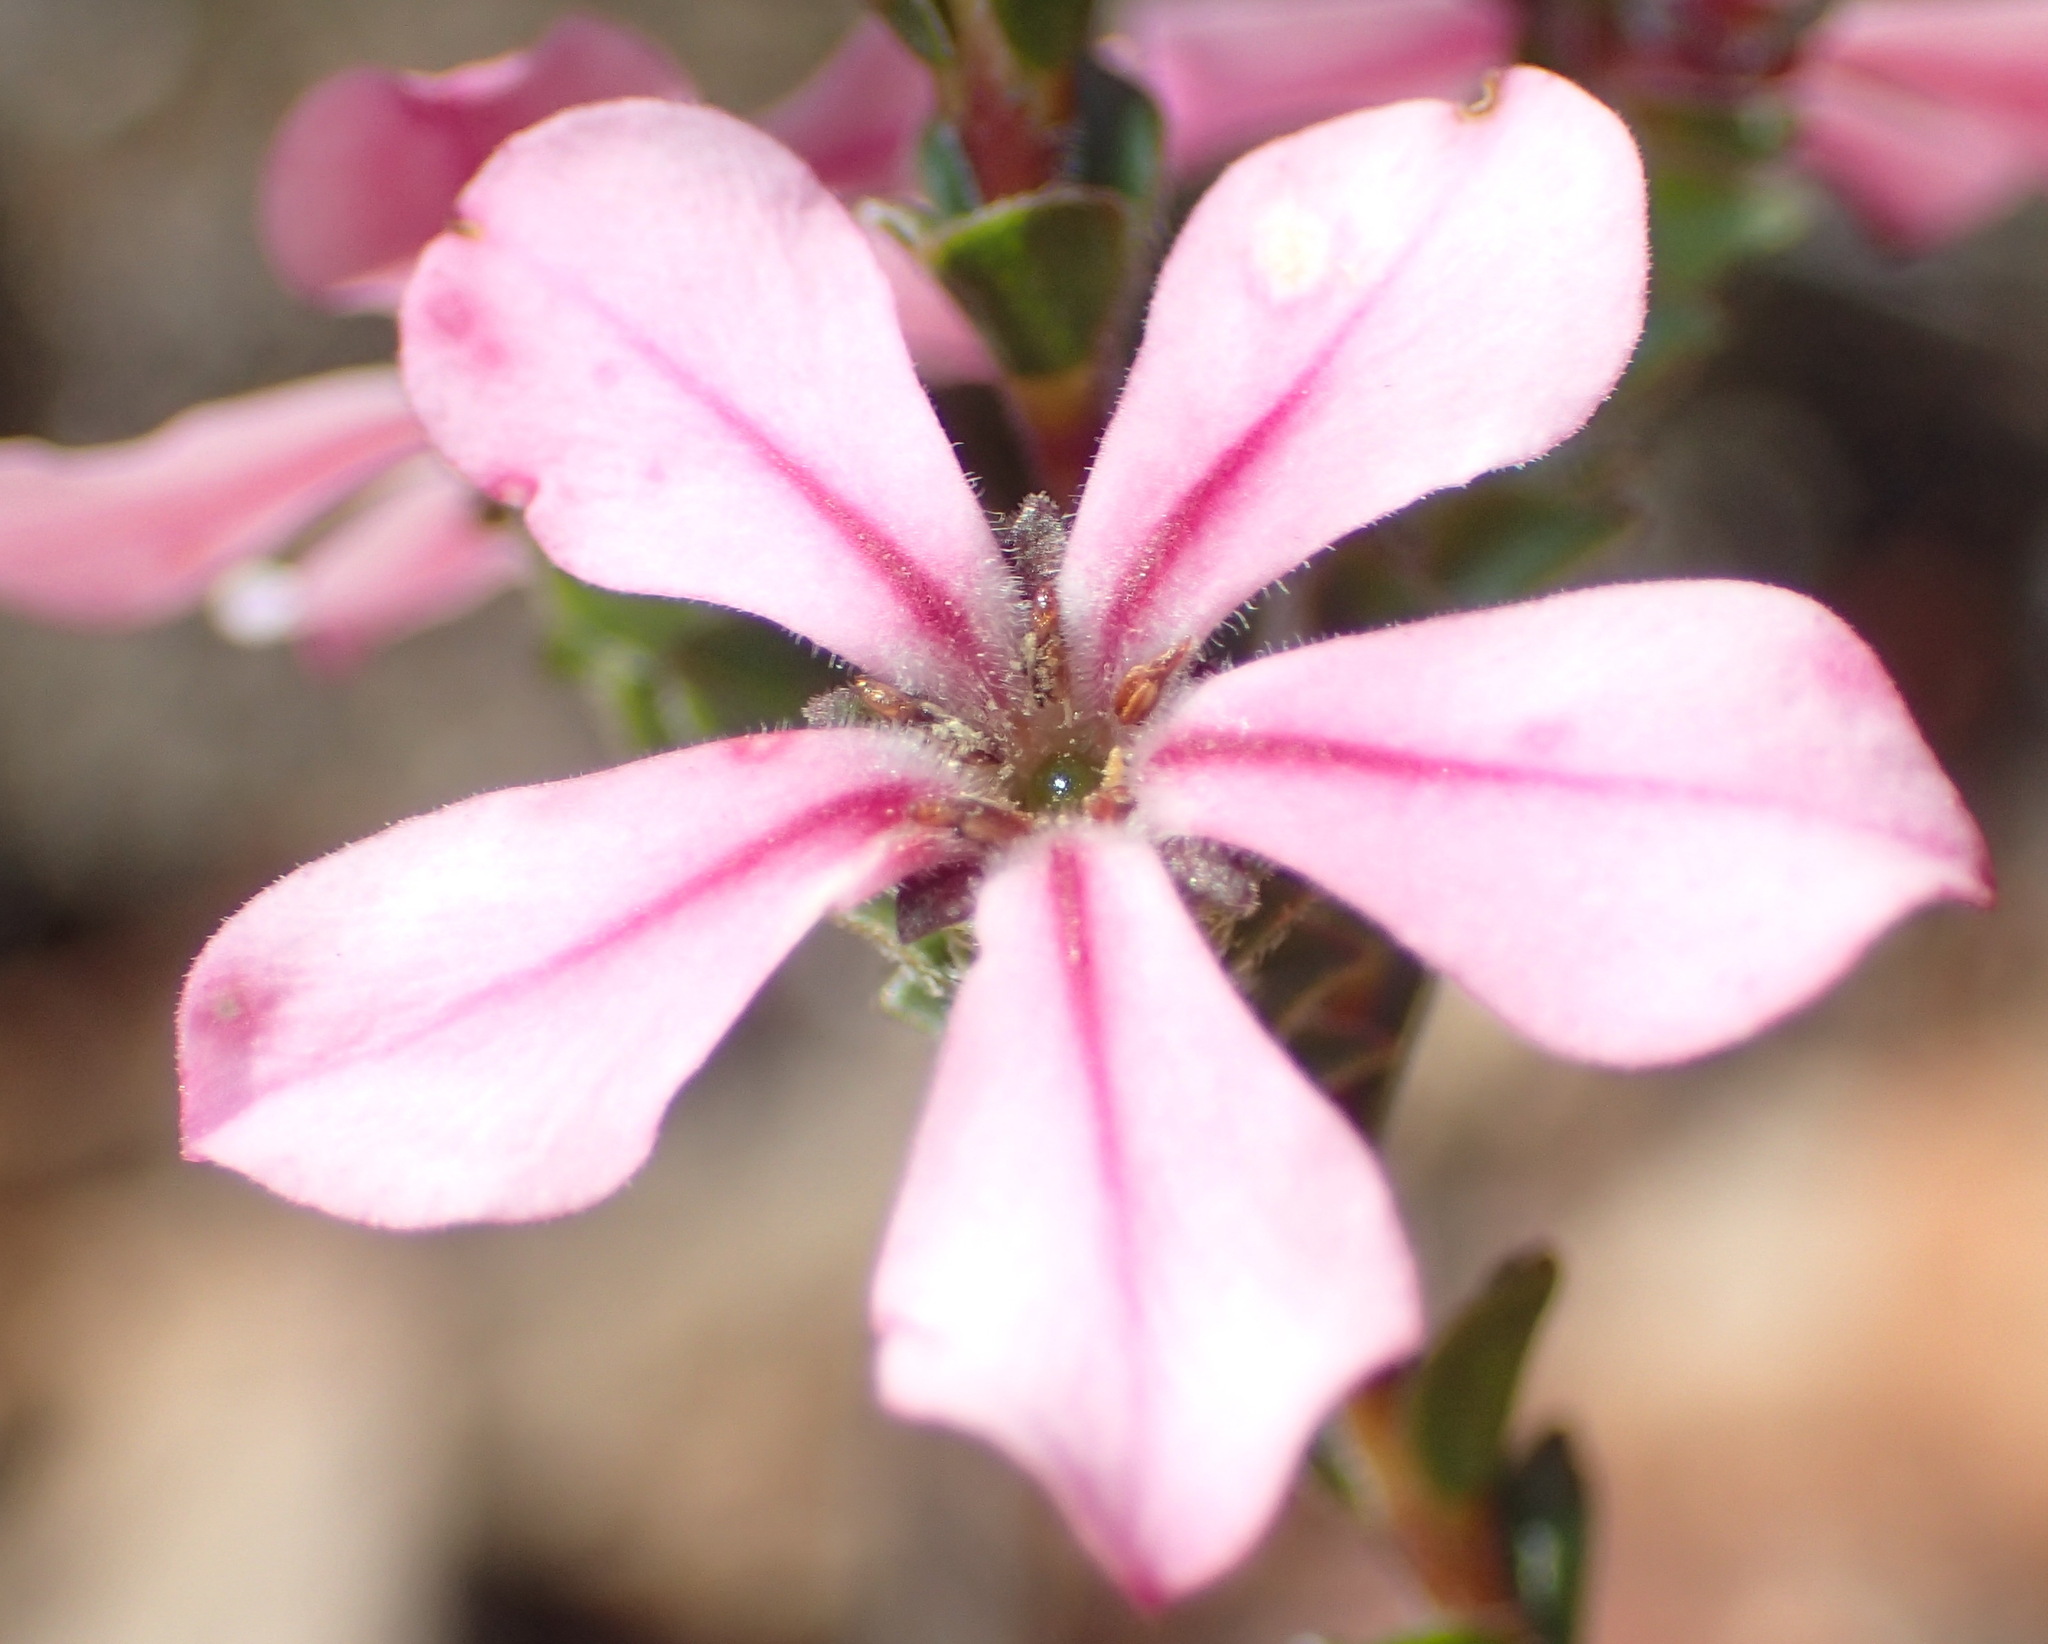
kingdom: Plantae
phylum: Tracheophyta
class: Magnoliopsida
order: Sapindales
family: Rutaceae
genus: Acmadenia
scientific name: Acmadenia tetragona
